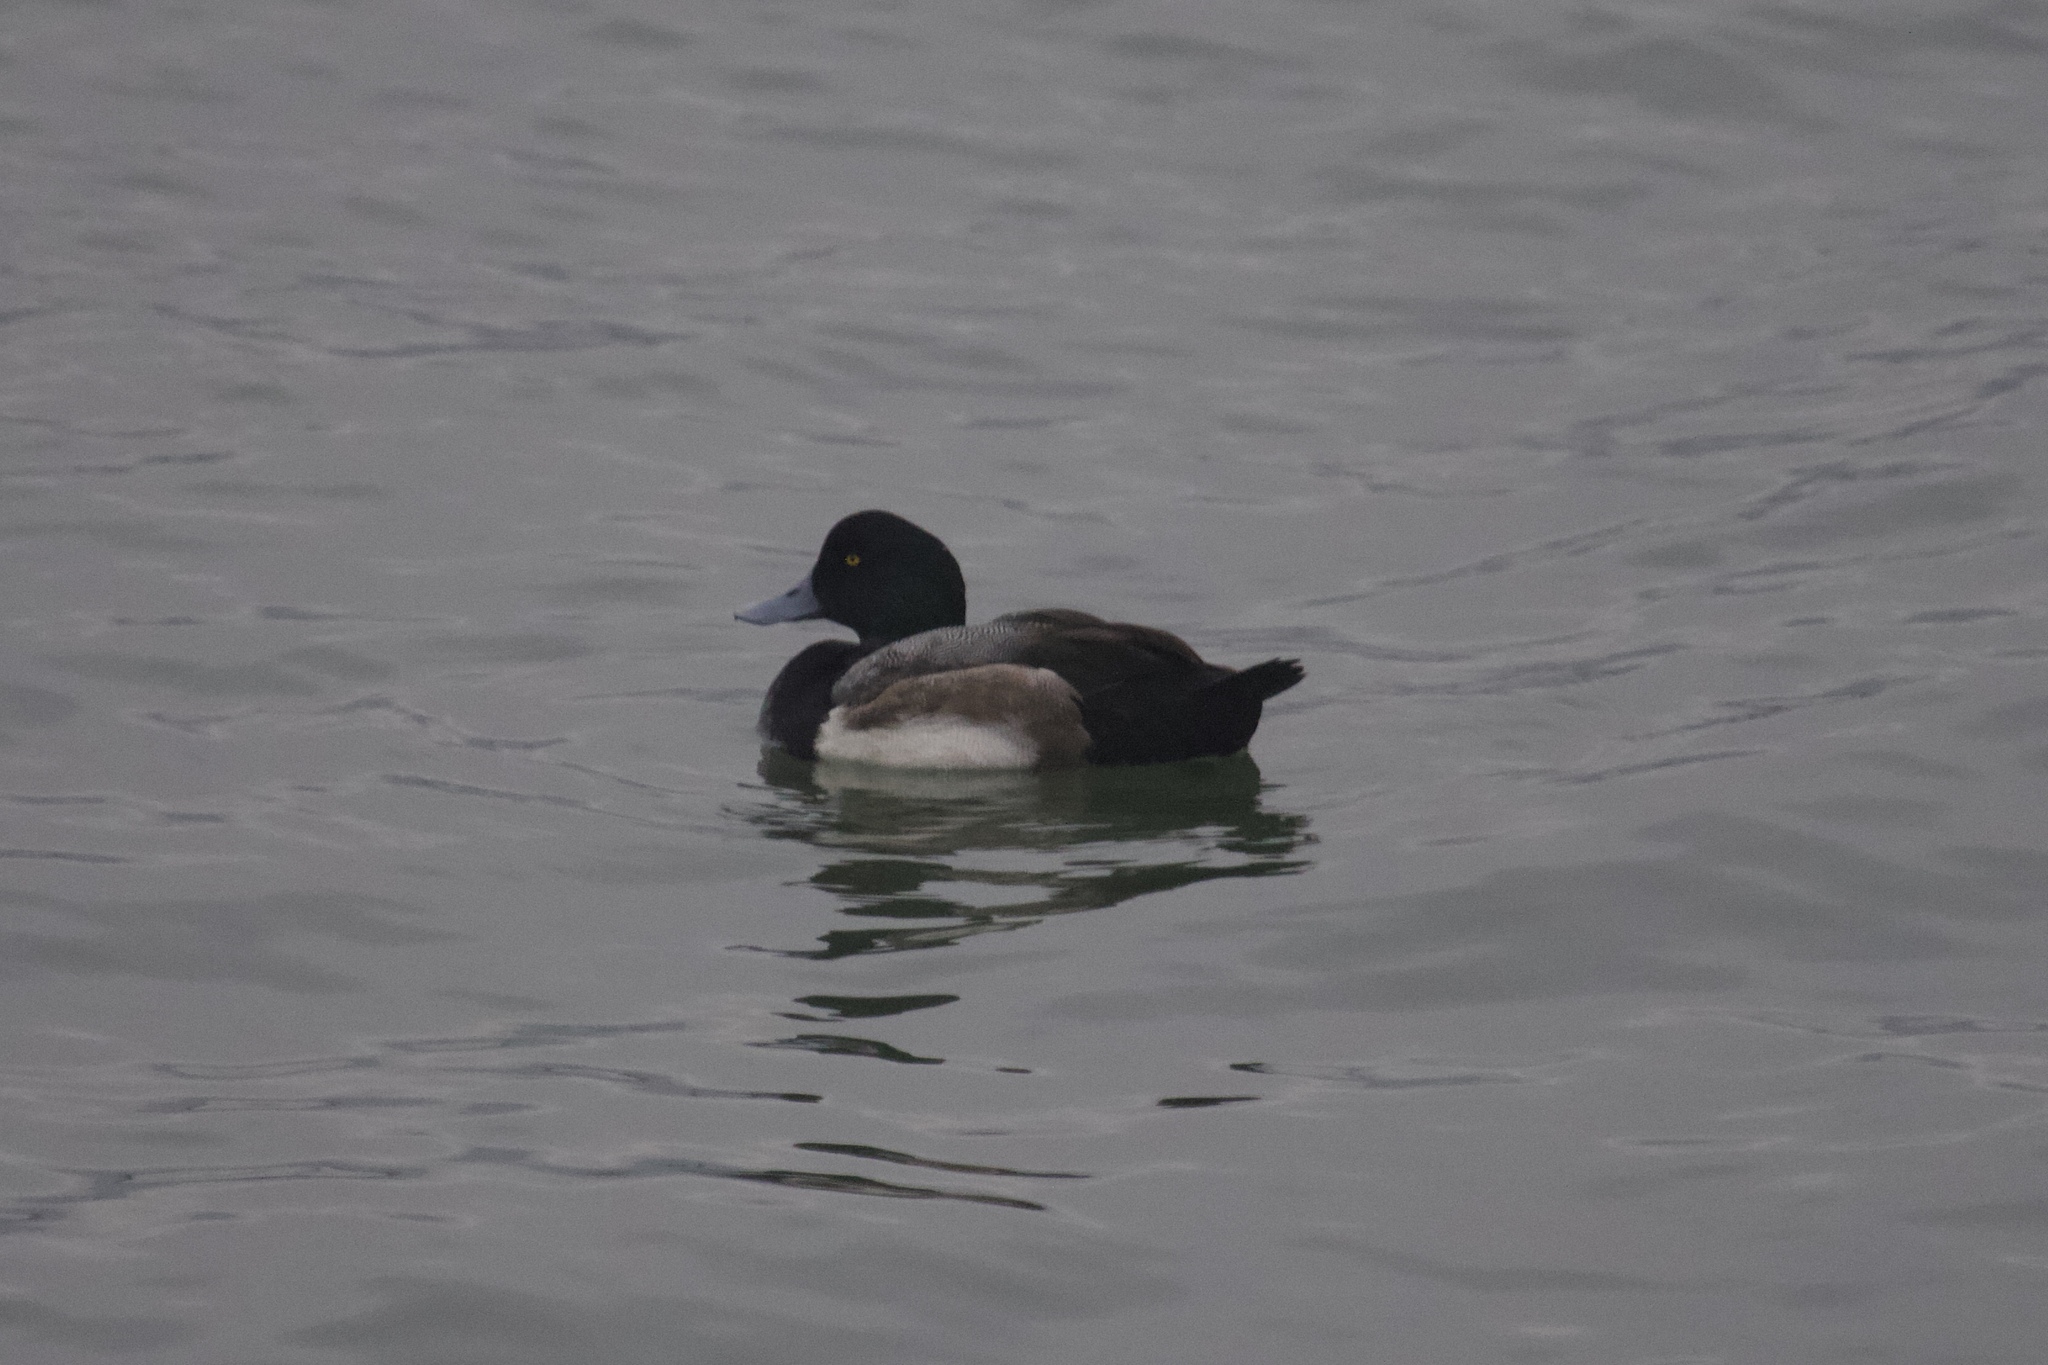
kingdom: Animalia
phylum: Chordata
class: Aves
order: Anseriformes
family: Anatidae
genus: Aythya
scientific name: Aythya marila
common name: Greater scaup
